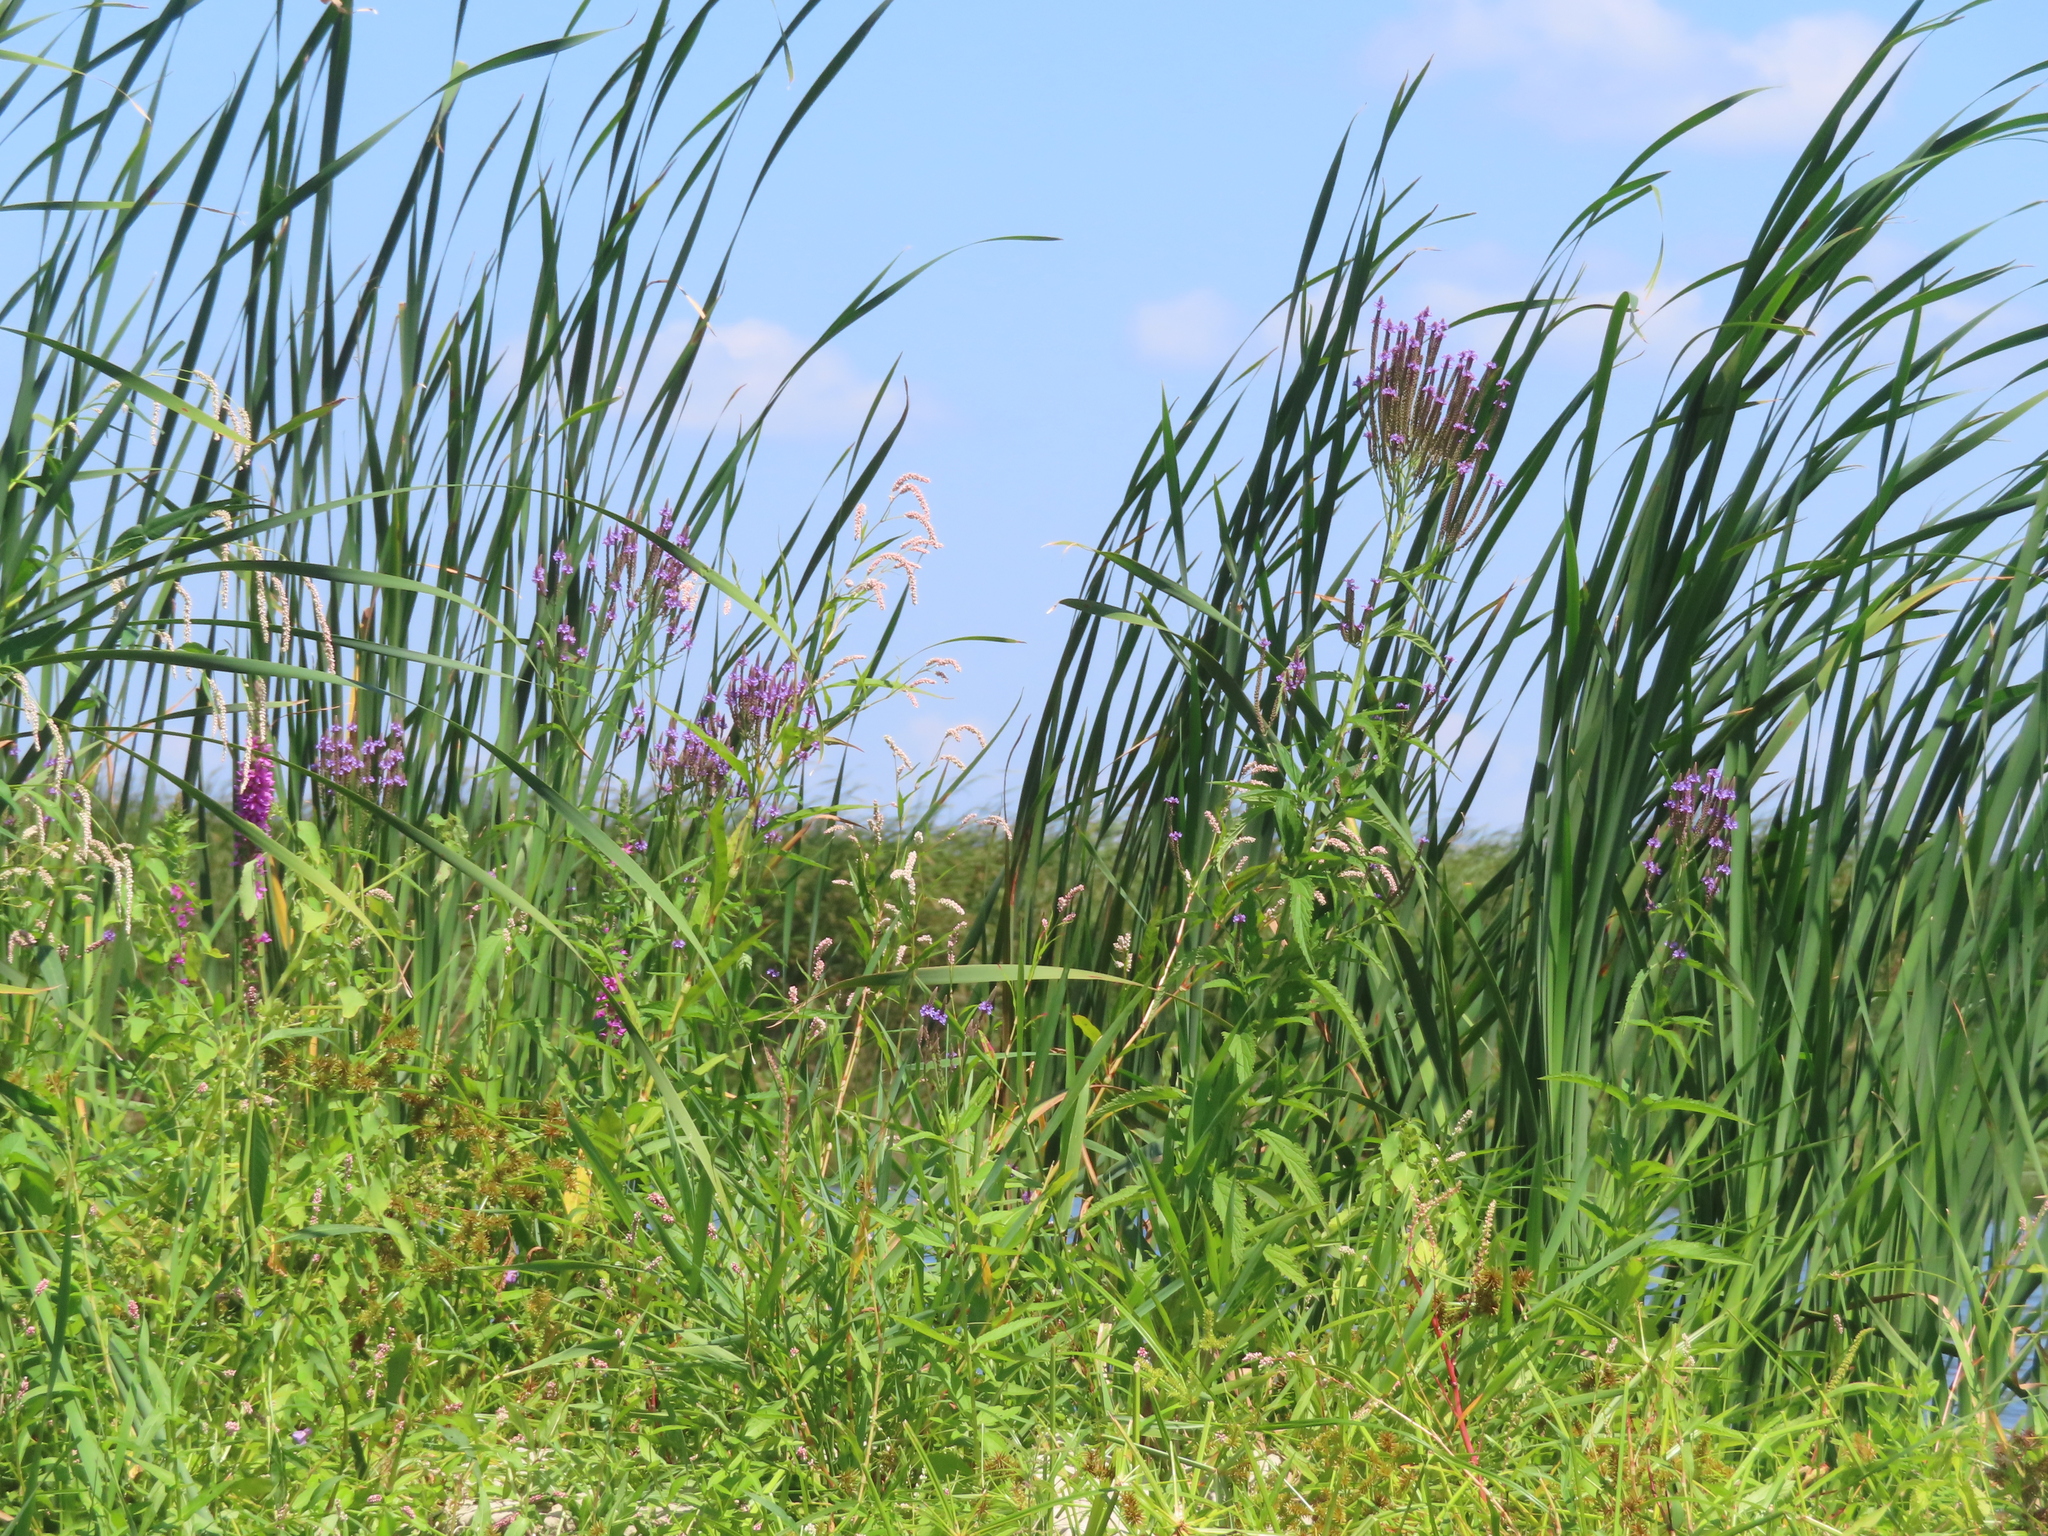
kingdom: Plantae
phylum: Tracheophyta
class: Magnoliopsida
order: Lamiales
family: Verbenaceae
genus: Verbena
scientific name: Verbena hastata
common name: American blue vervain
